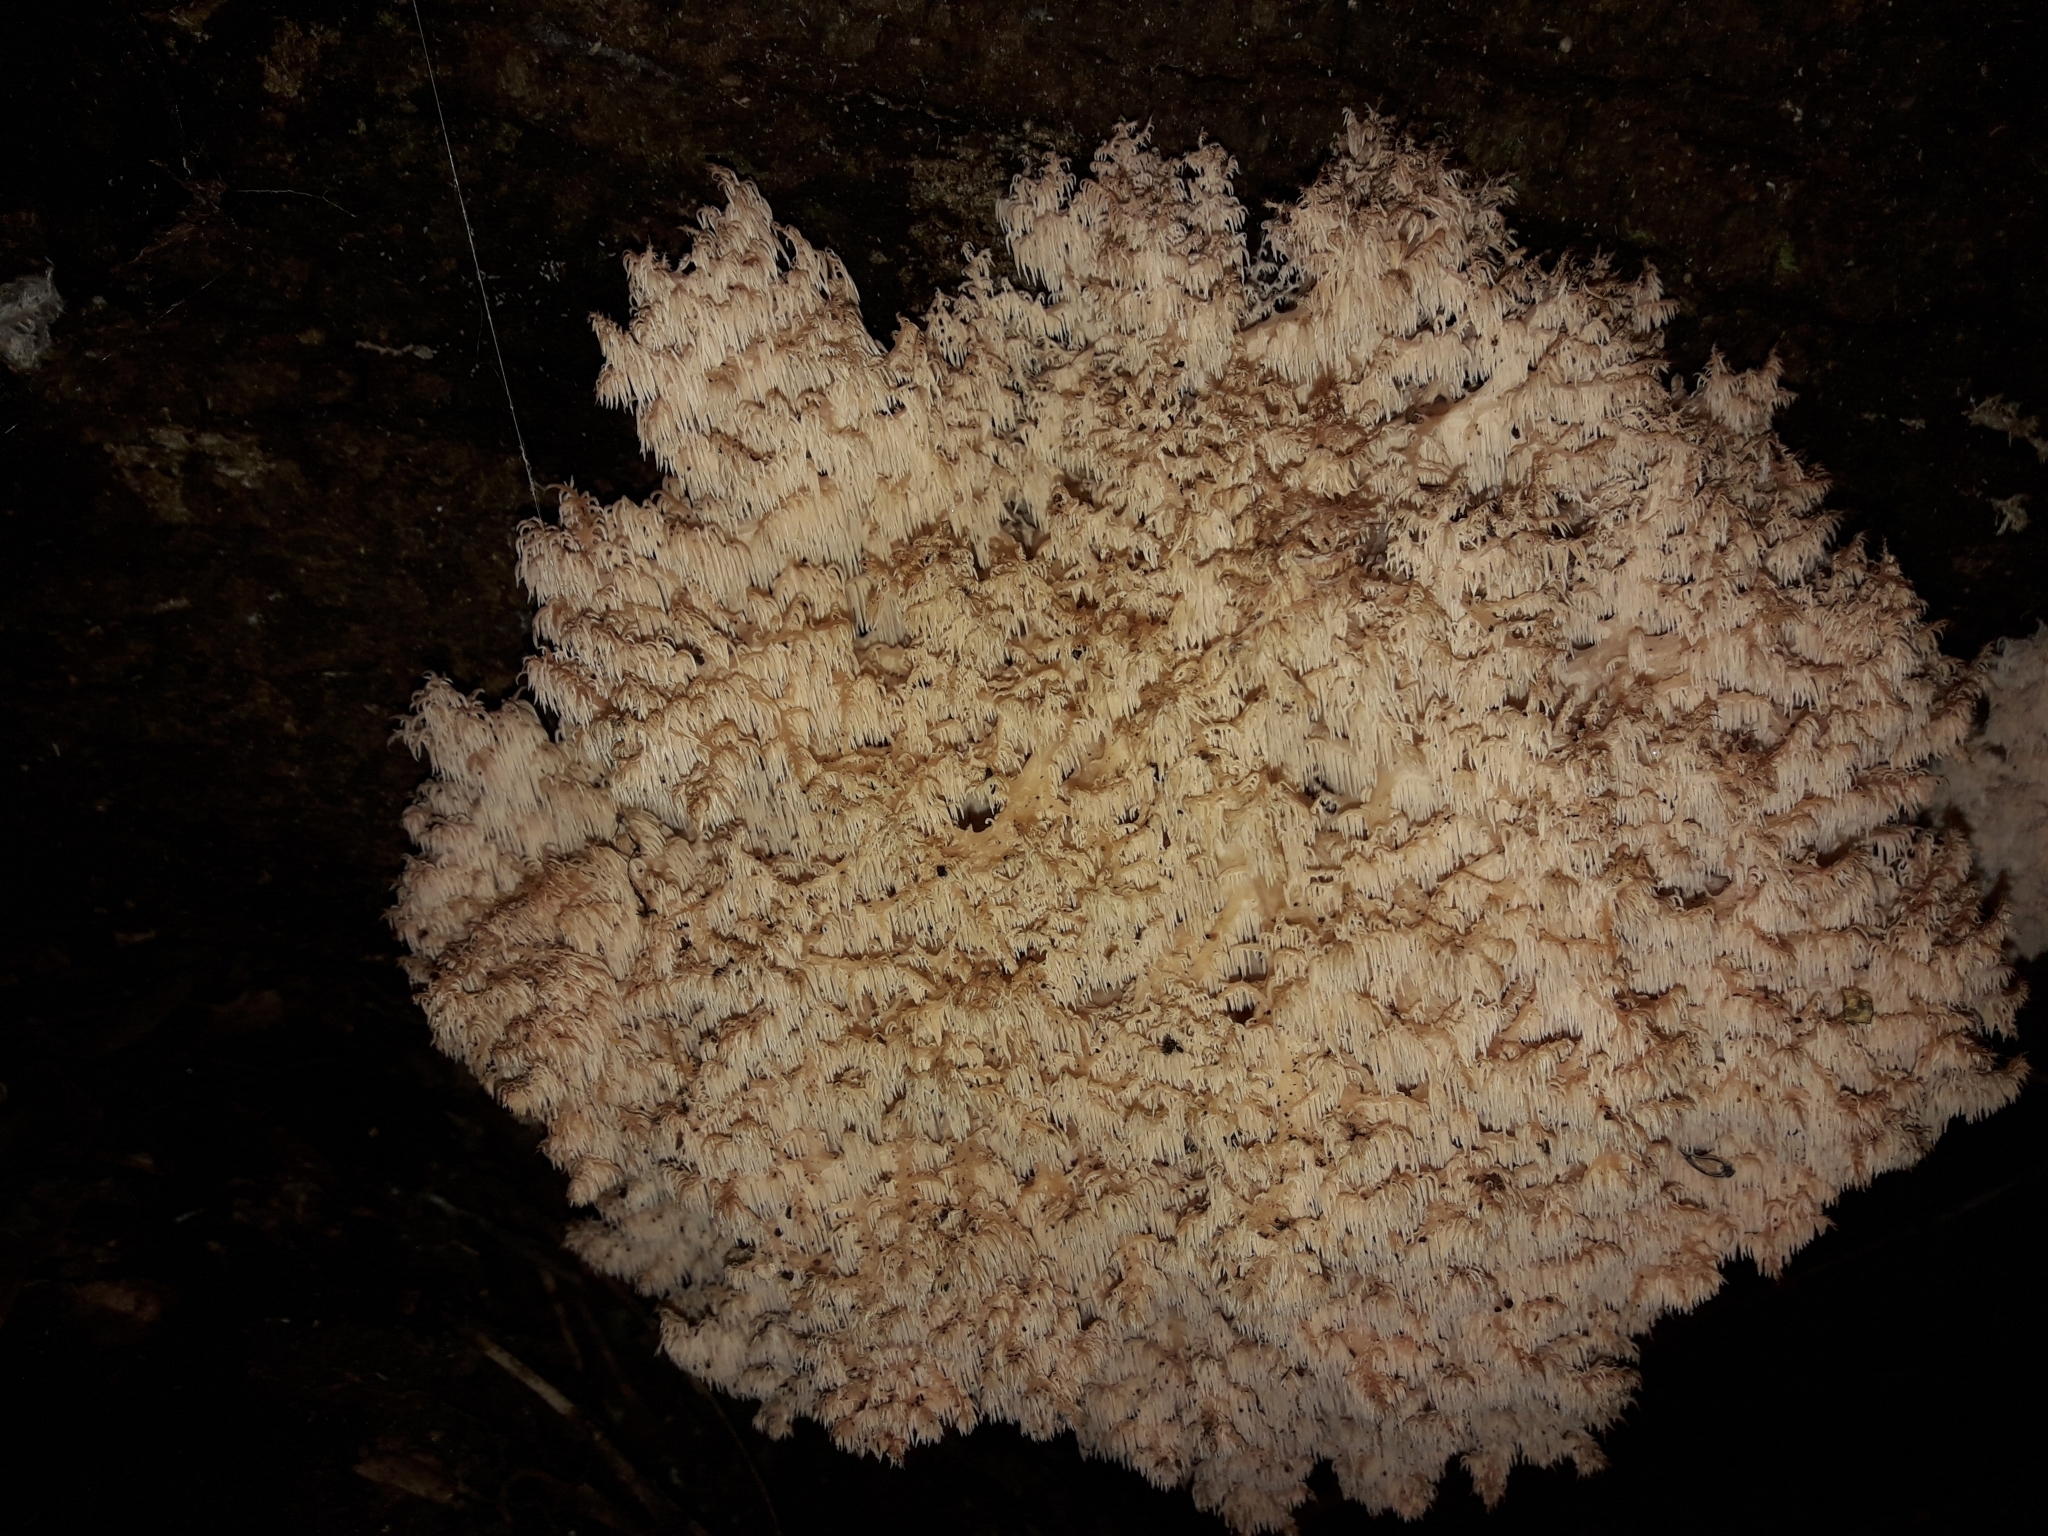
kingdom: Fungi
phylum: Basidiomycota
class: Agaricomycetes
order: Russulales
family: Hericiaceae
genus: Hericium
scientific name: Hericium novae-zealandiae
